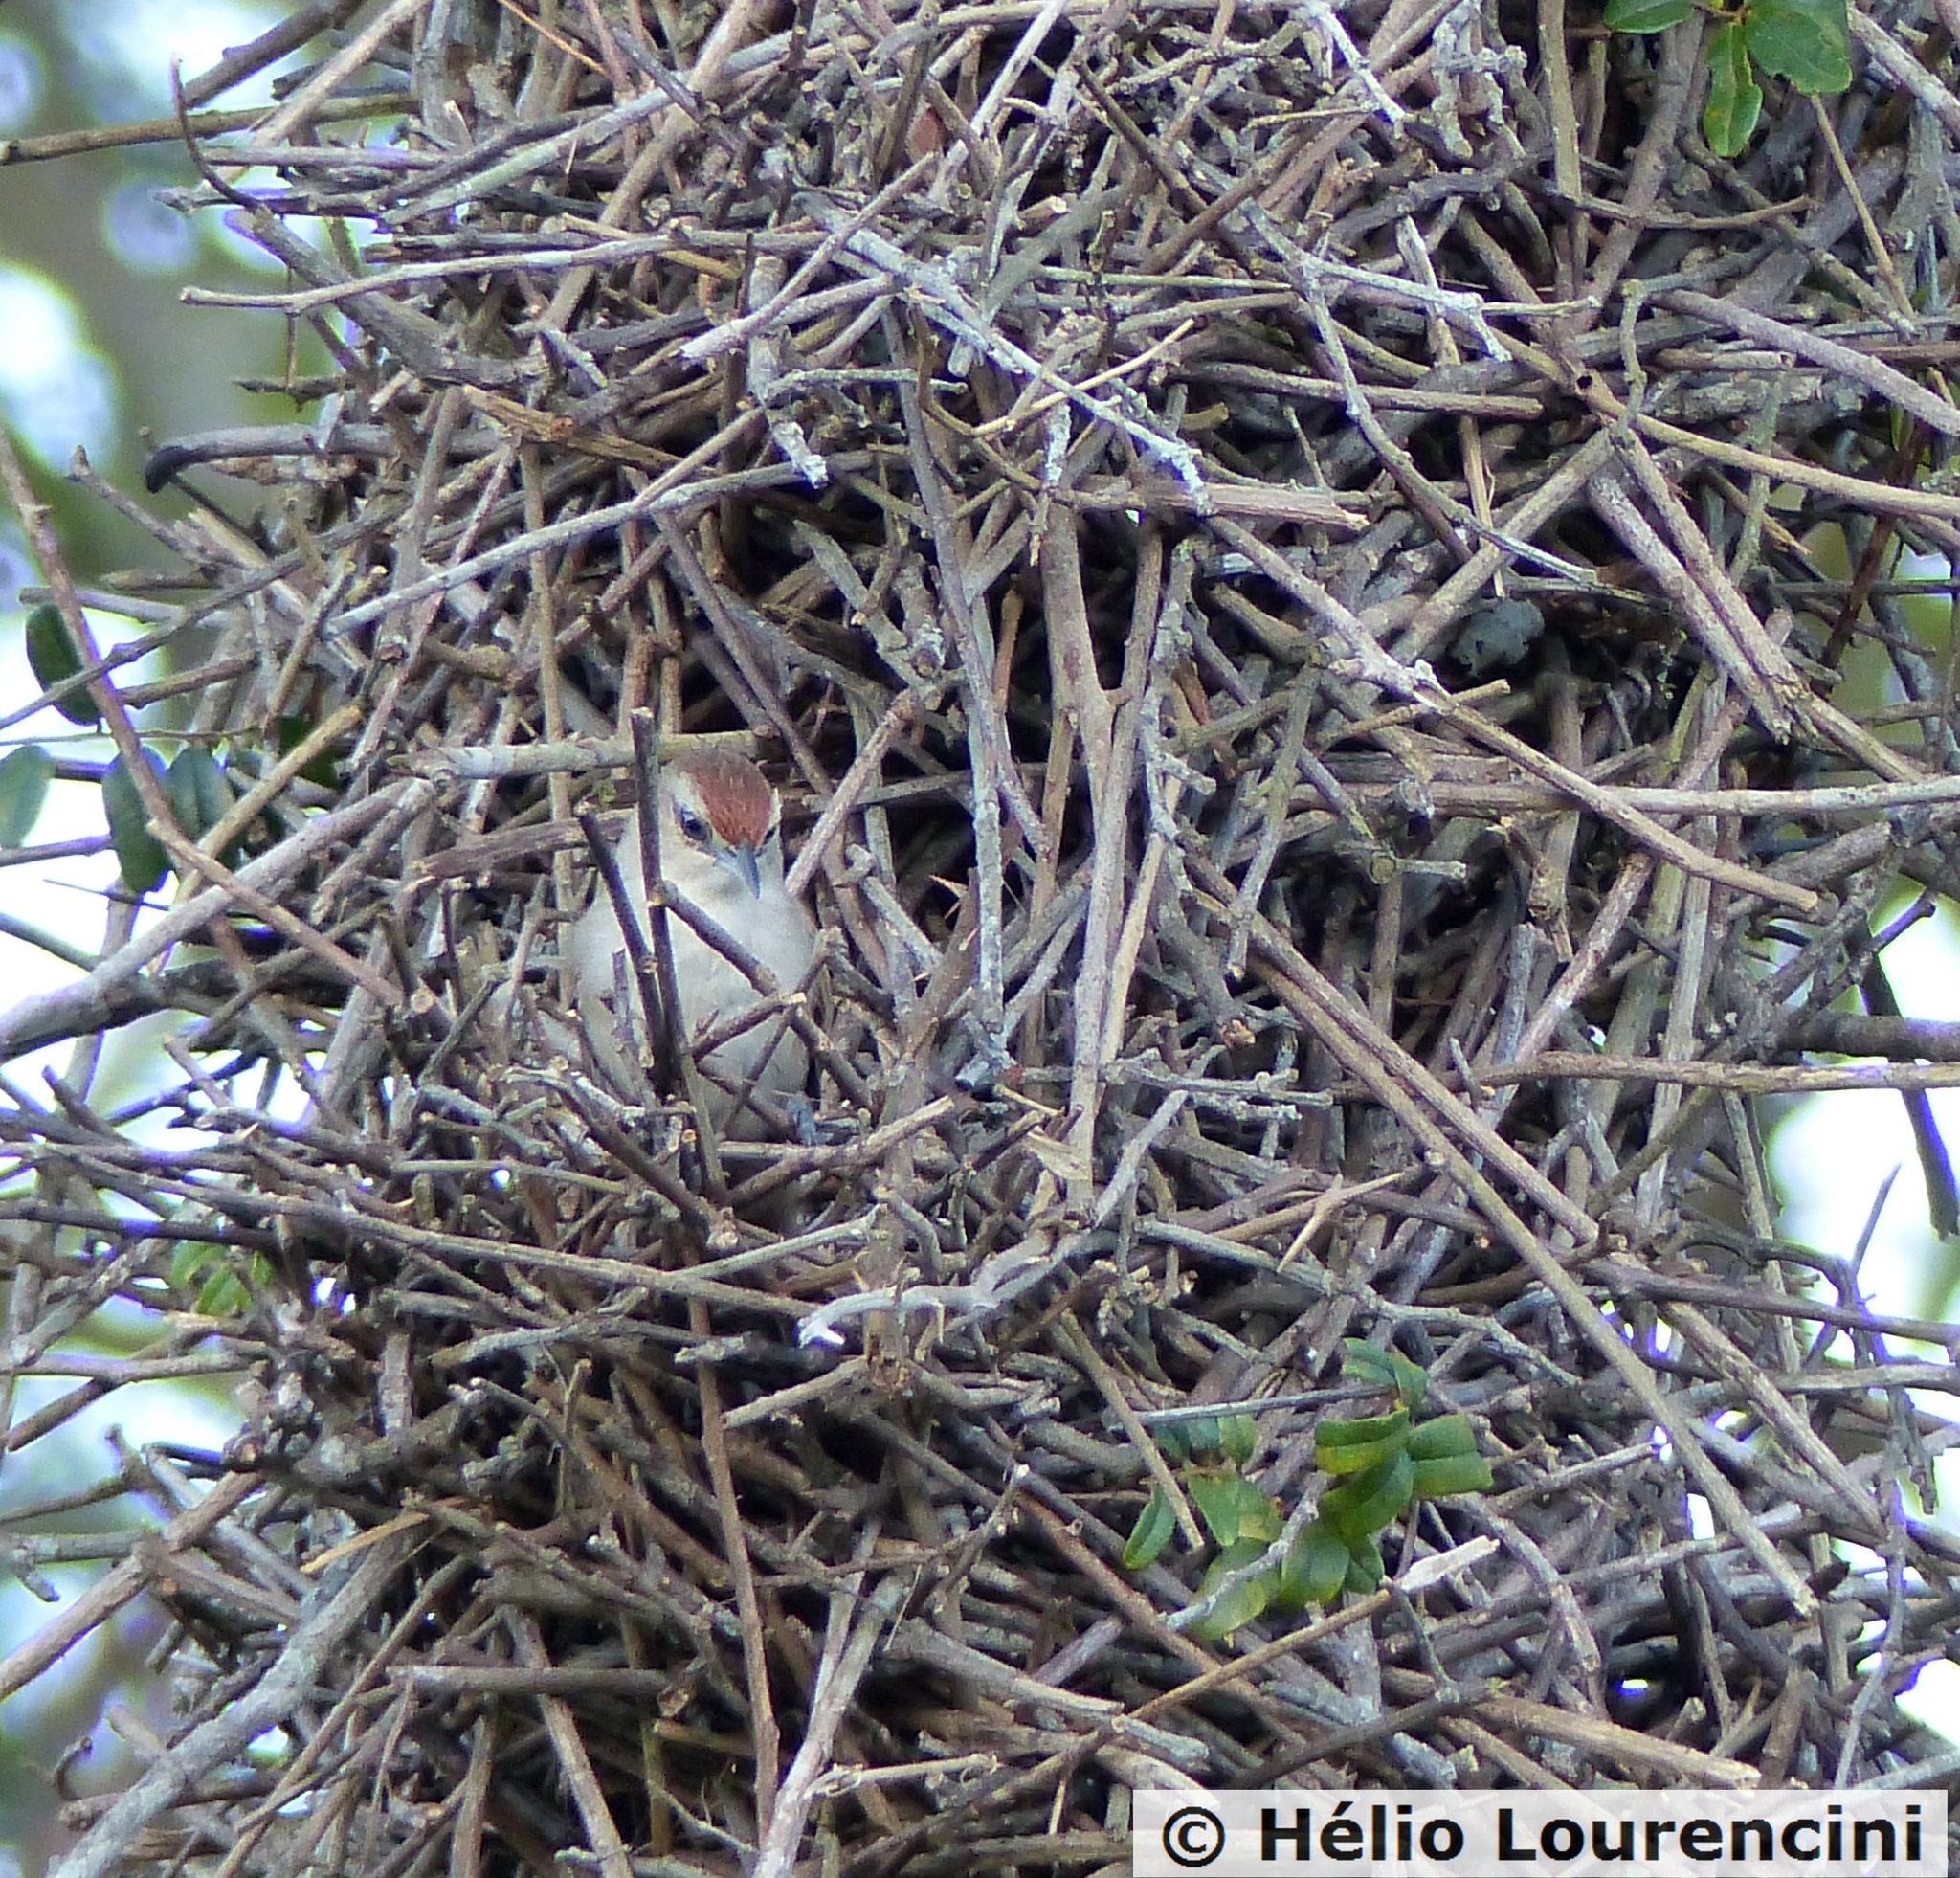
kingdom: Animalia
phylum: Chordata
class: Aves
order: Passeriformes
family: Furnariidae
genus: Phacellodomus
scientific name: Phacellodomus rufifrons
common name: Rufous-fronted thornbird
